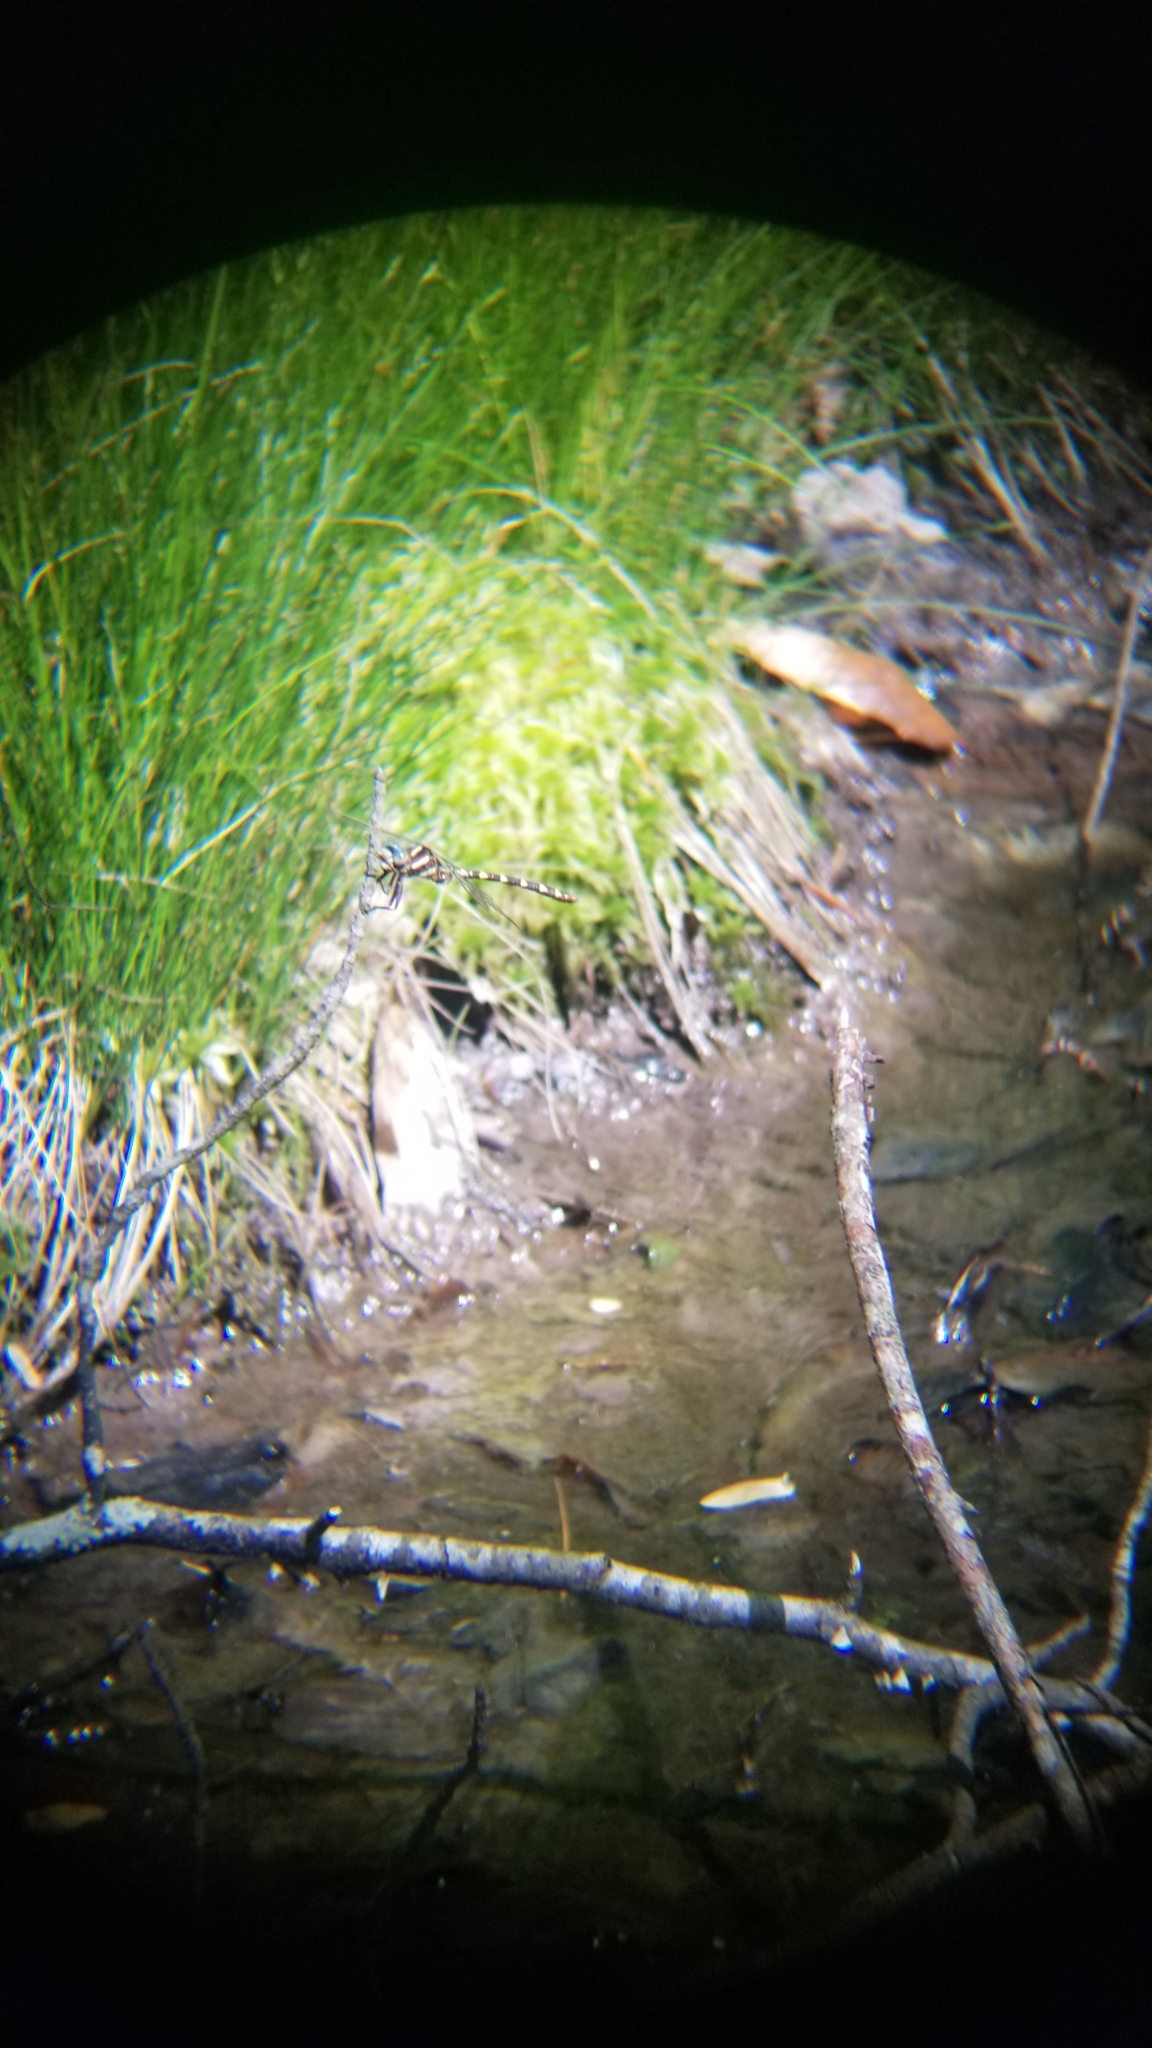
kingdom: Animalia
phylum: Arthropoda
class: Insecta
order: Odonata
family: Cordulegastridae
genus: Cordulegaster
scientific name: Cordulegaster bilineata
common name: Brown spiketail
